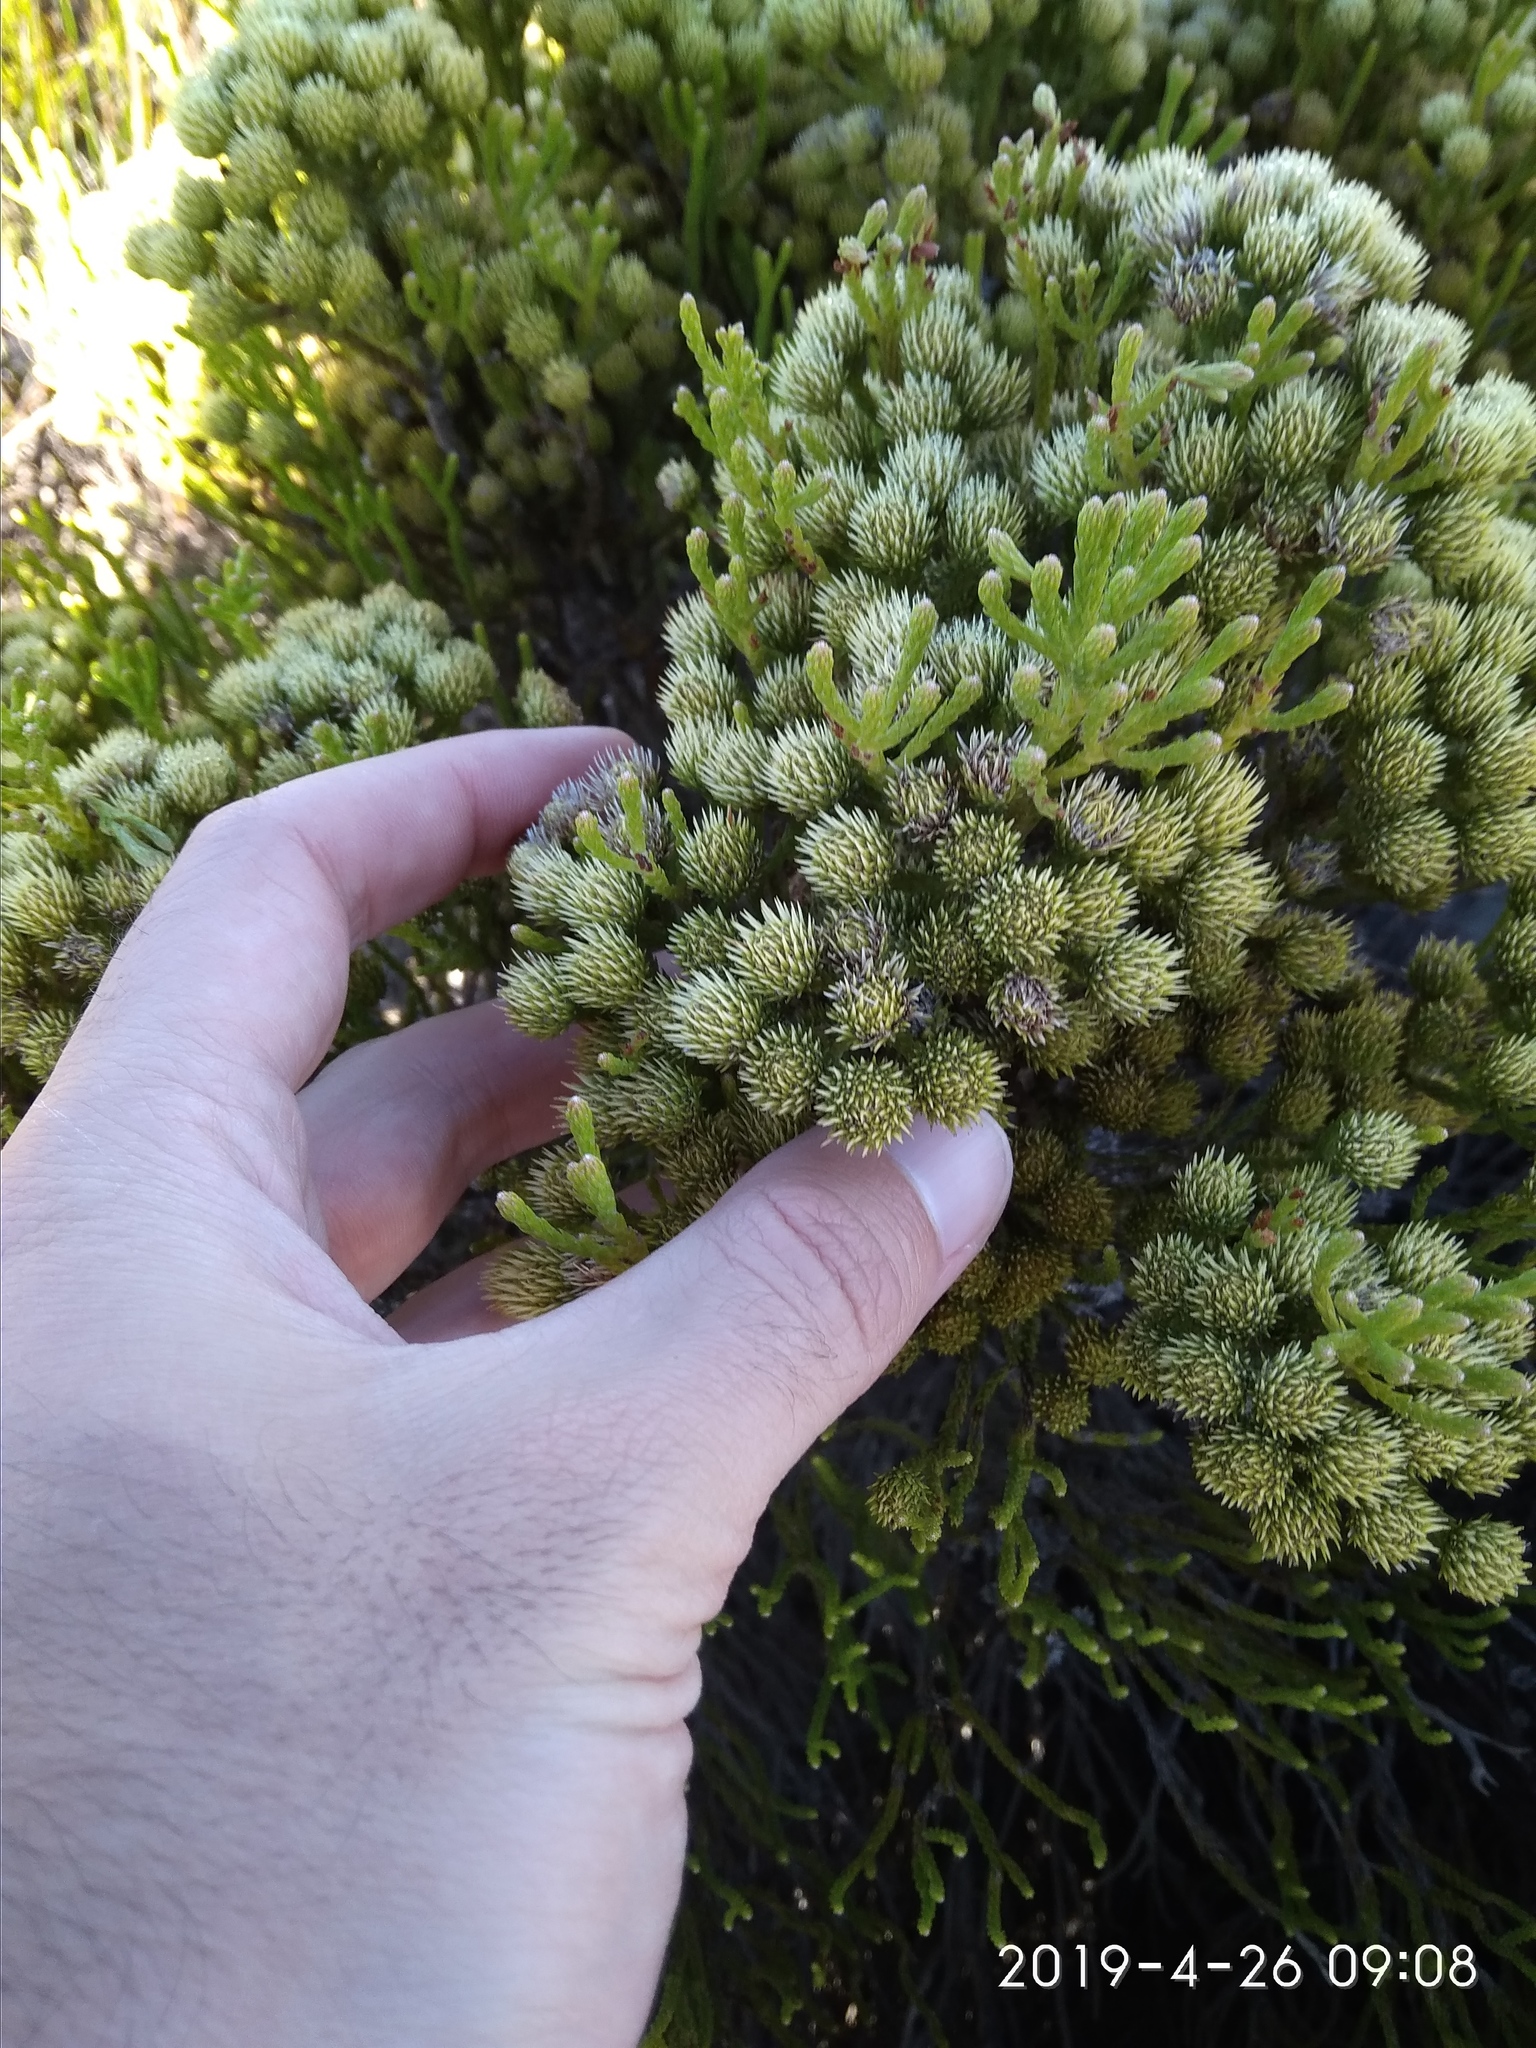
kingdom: Plantae
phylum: Tracheophyta
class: Magnoliopsida
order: Bruniales
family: Bruniaceae
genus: Brunia
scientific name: Brunia paleacea
